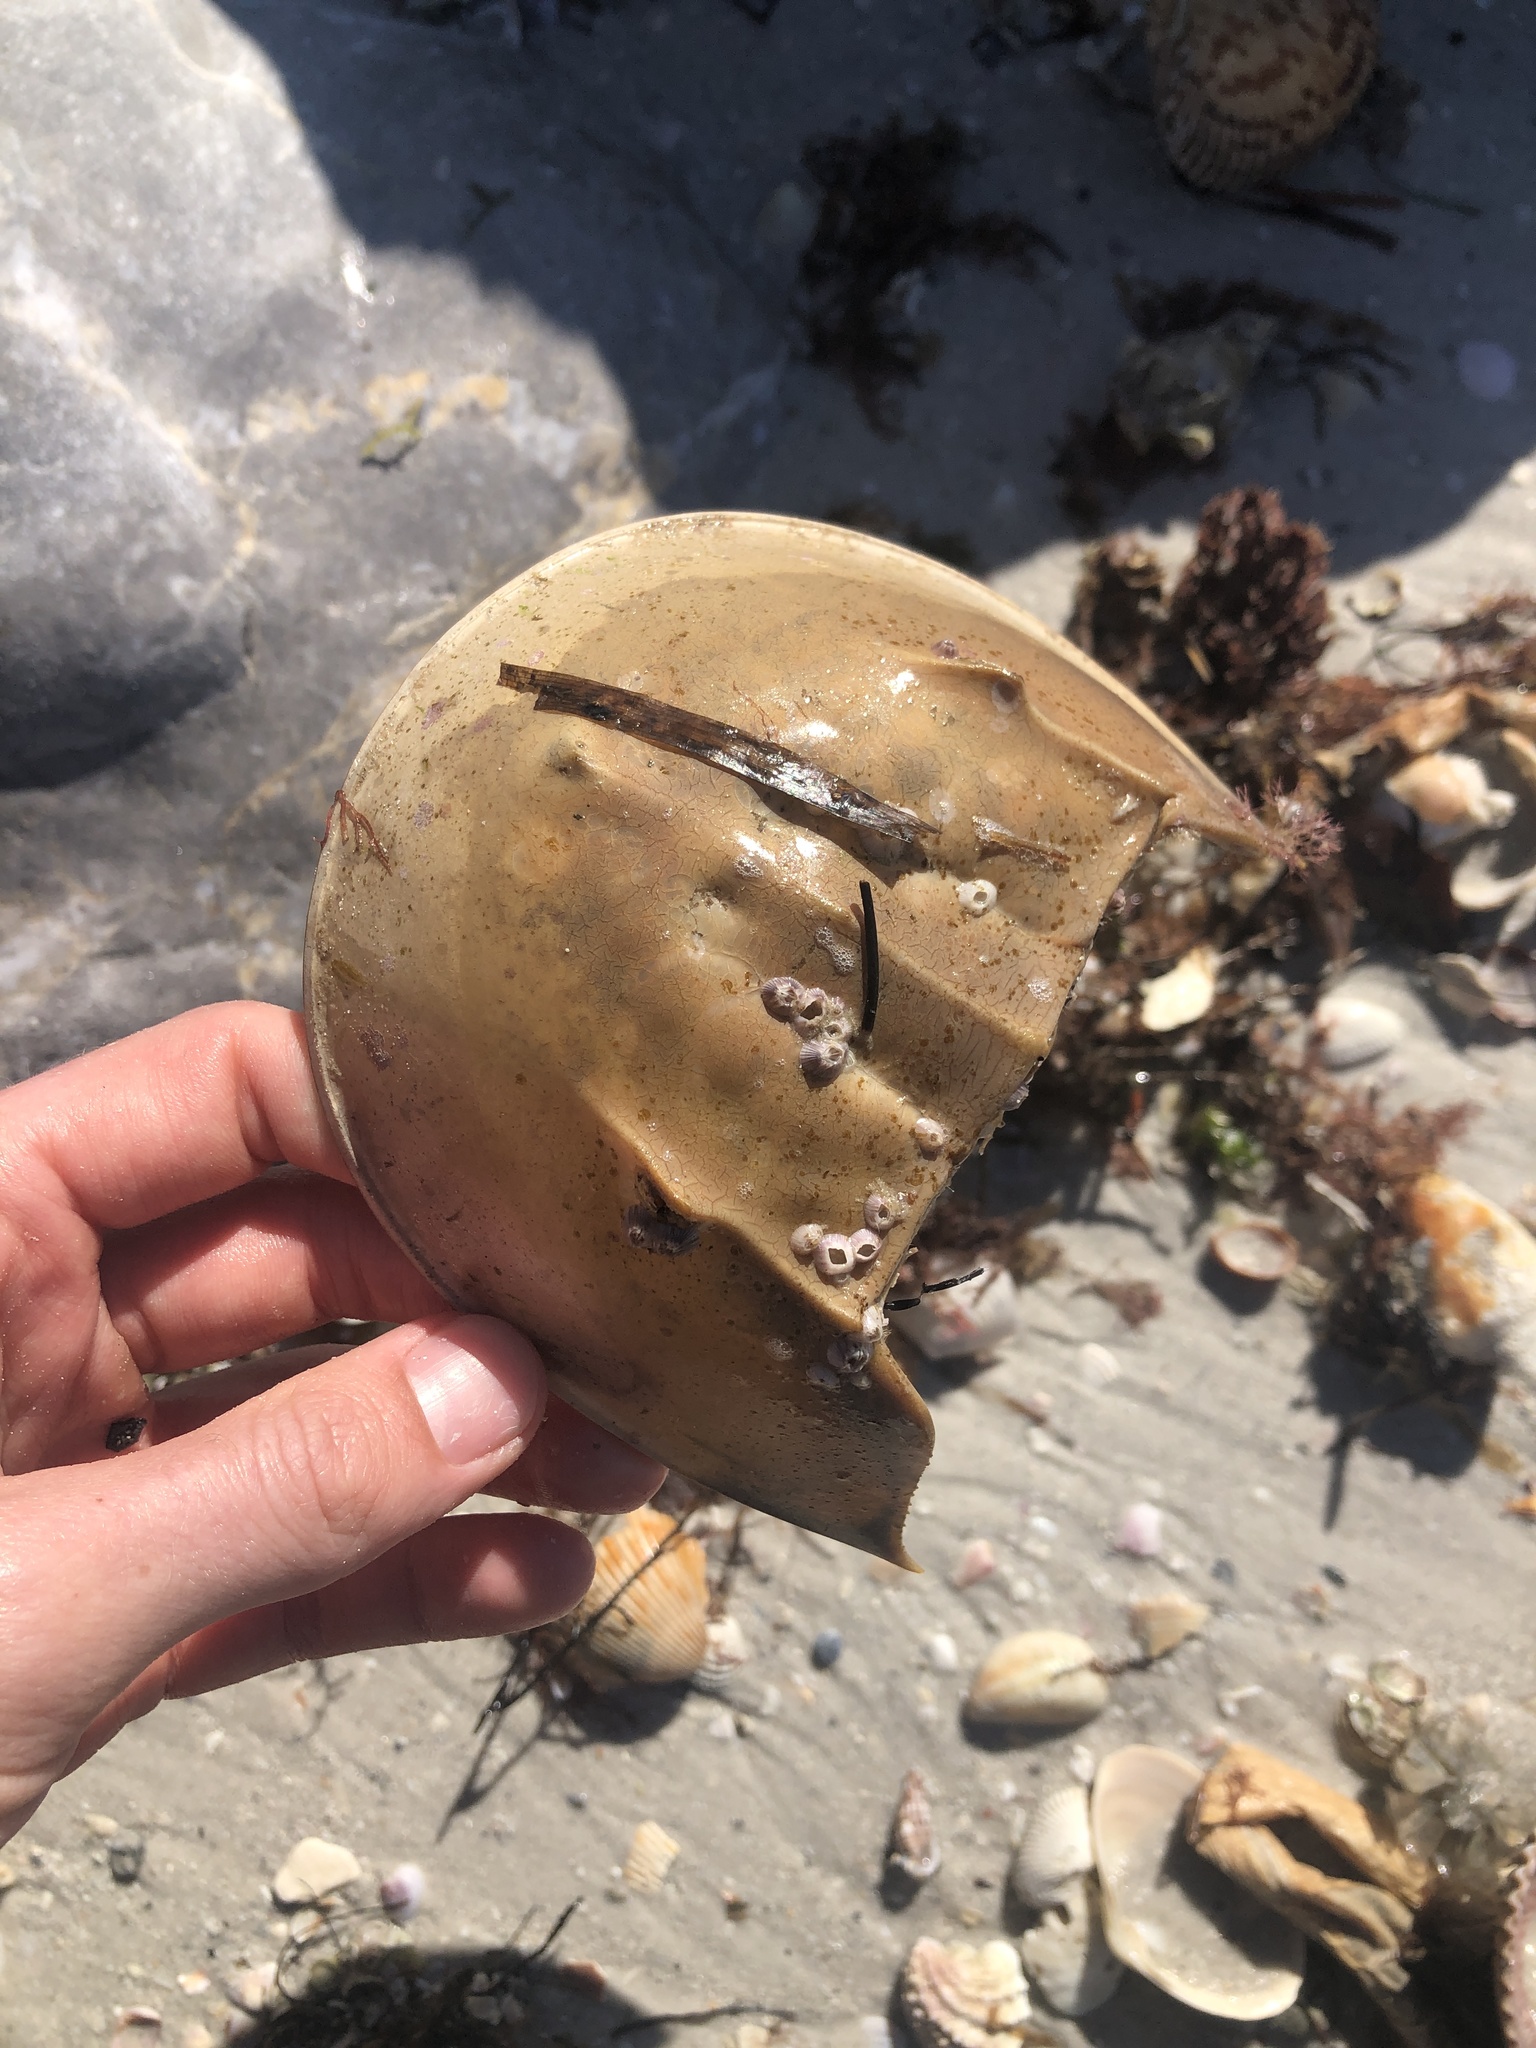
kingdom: Animalia
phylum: Arthropoda
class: Merostomata
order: Xiphosurida
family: Limulidae
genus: Limulus
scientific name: Limulus polyphemus
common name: Horseshoe crab
